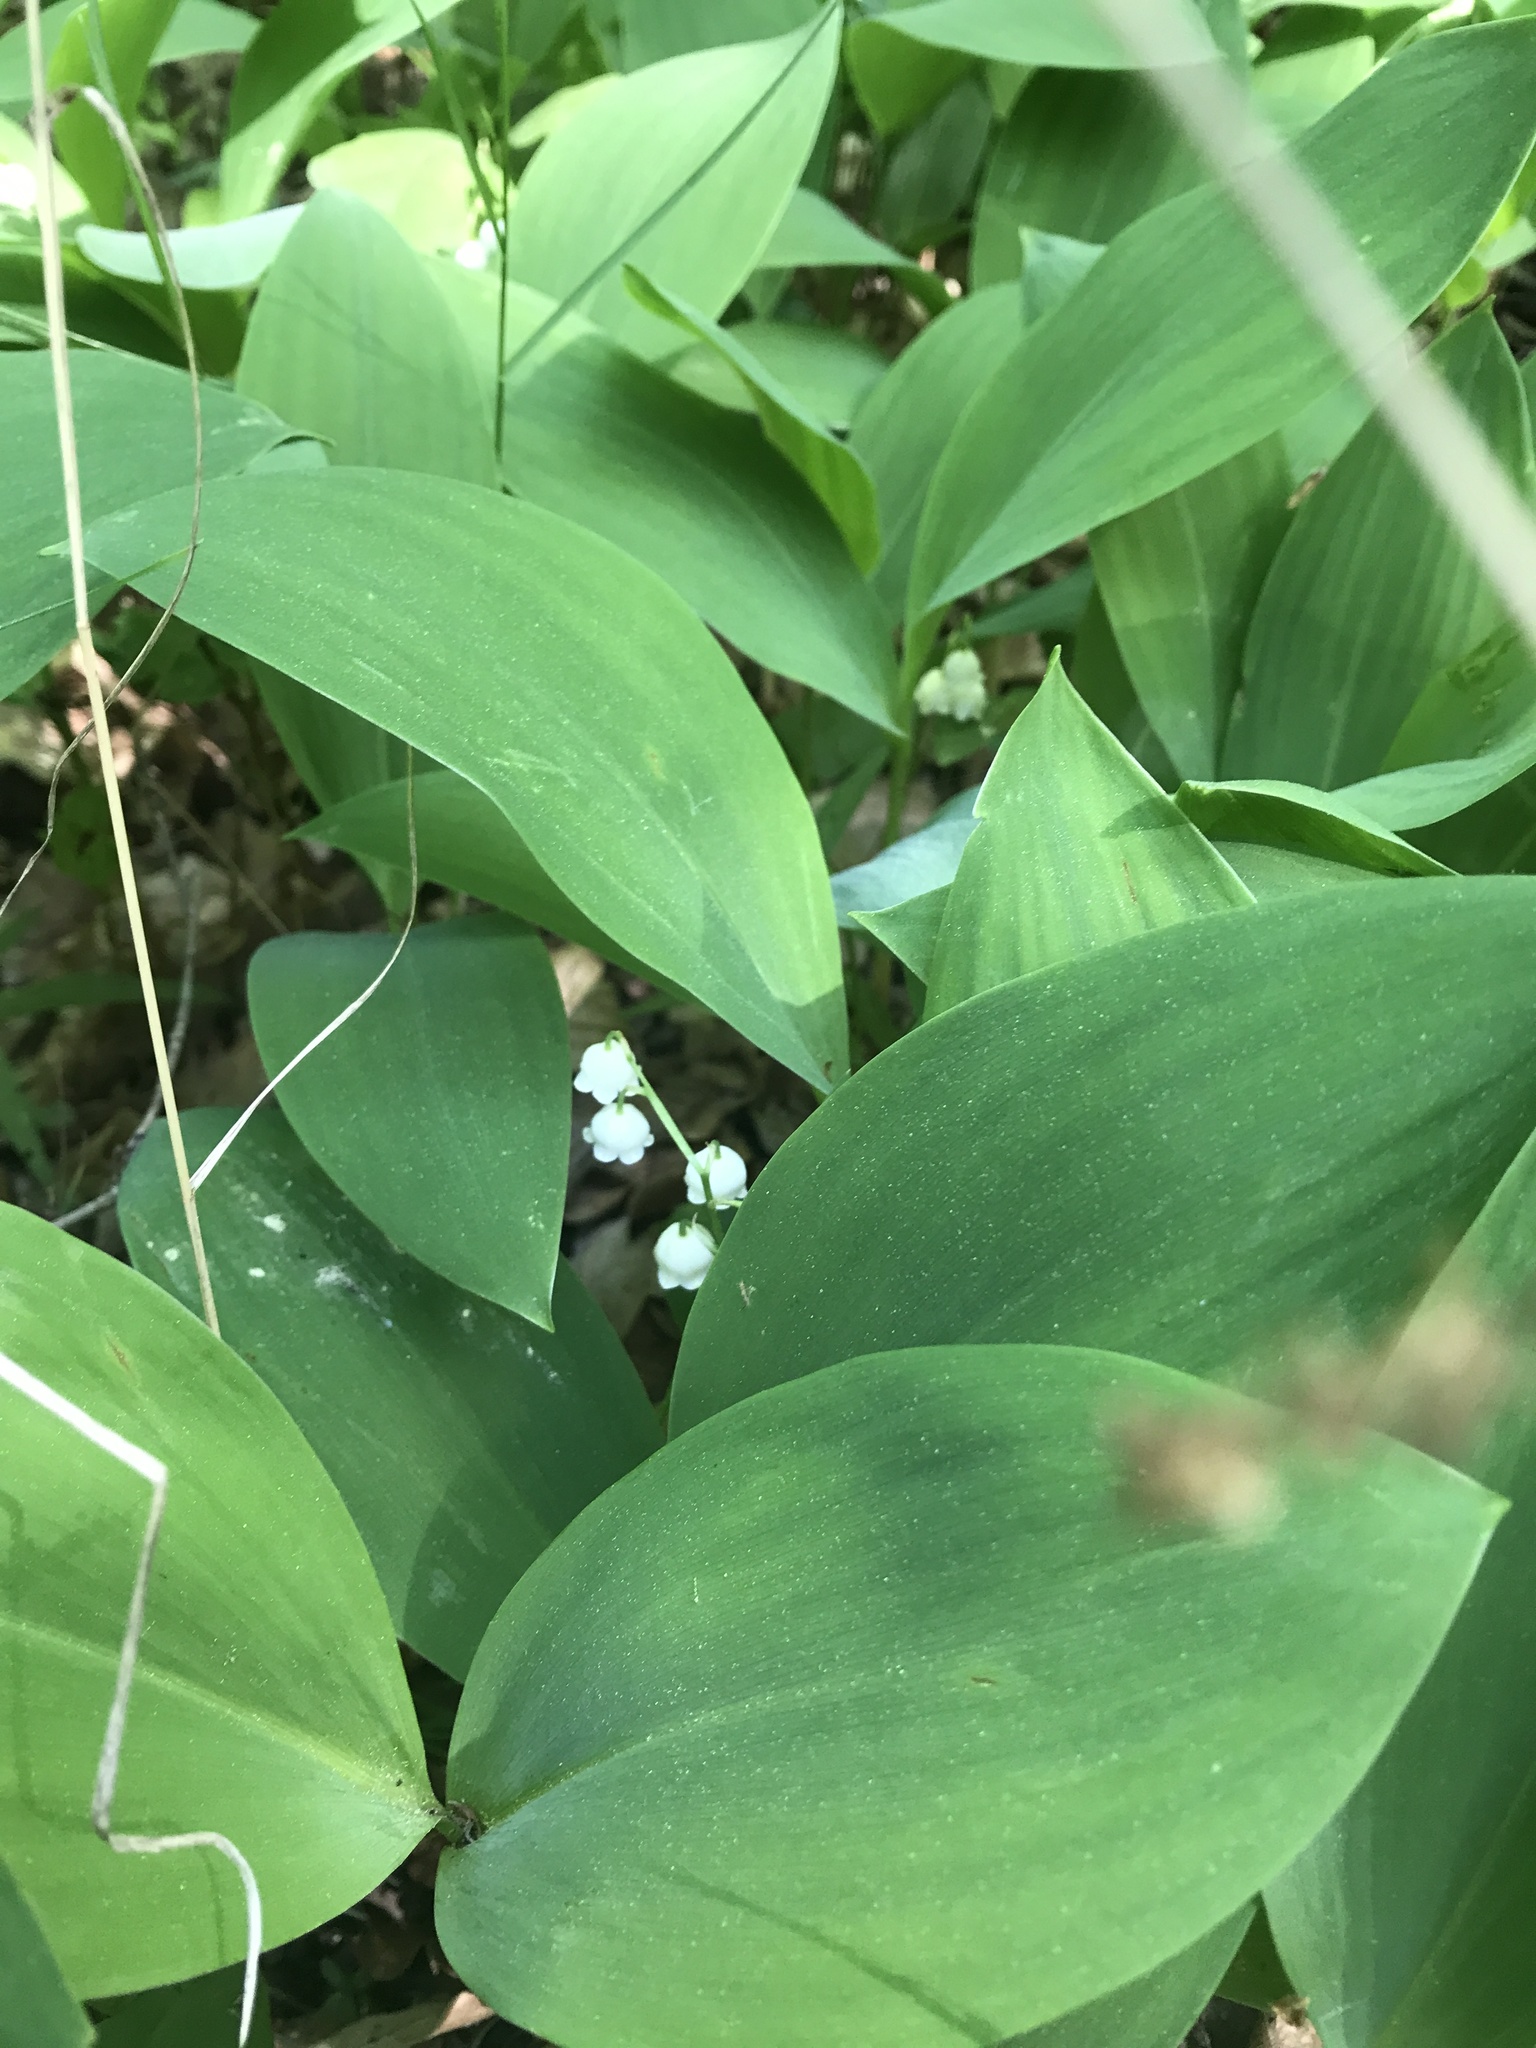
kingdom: Plantae
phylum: Tracheophyta
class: Liliopsida
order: Asparagales
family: Asparagaceae
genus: Convallaria
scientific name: Convallaria majalis
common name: Lily-of-the-valley
